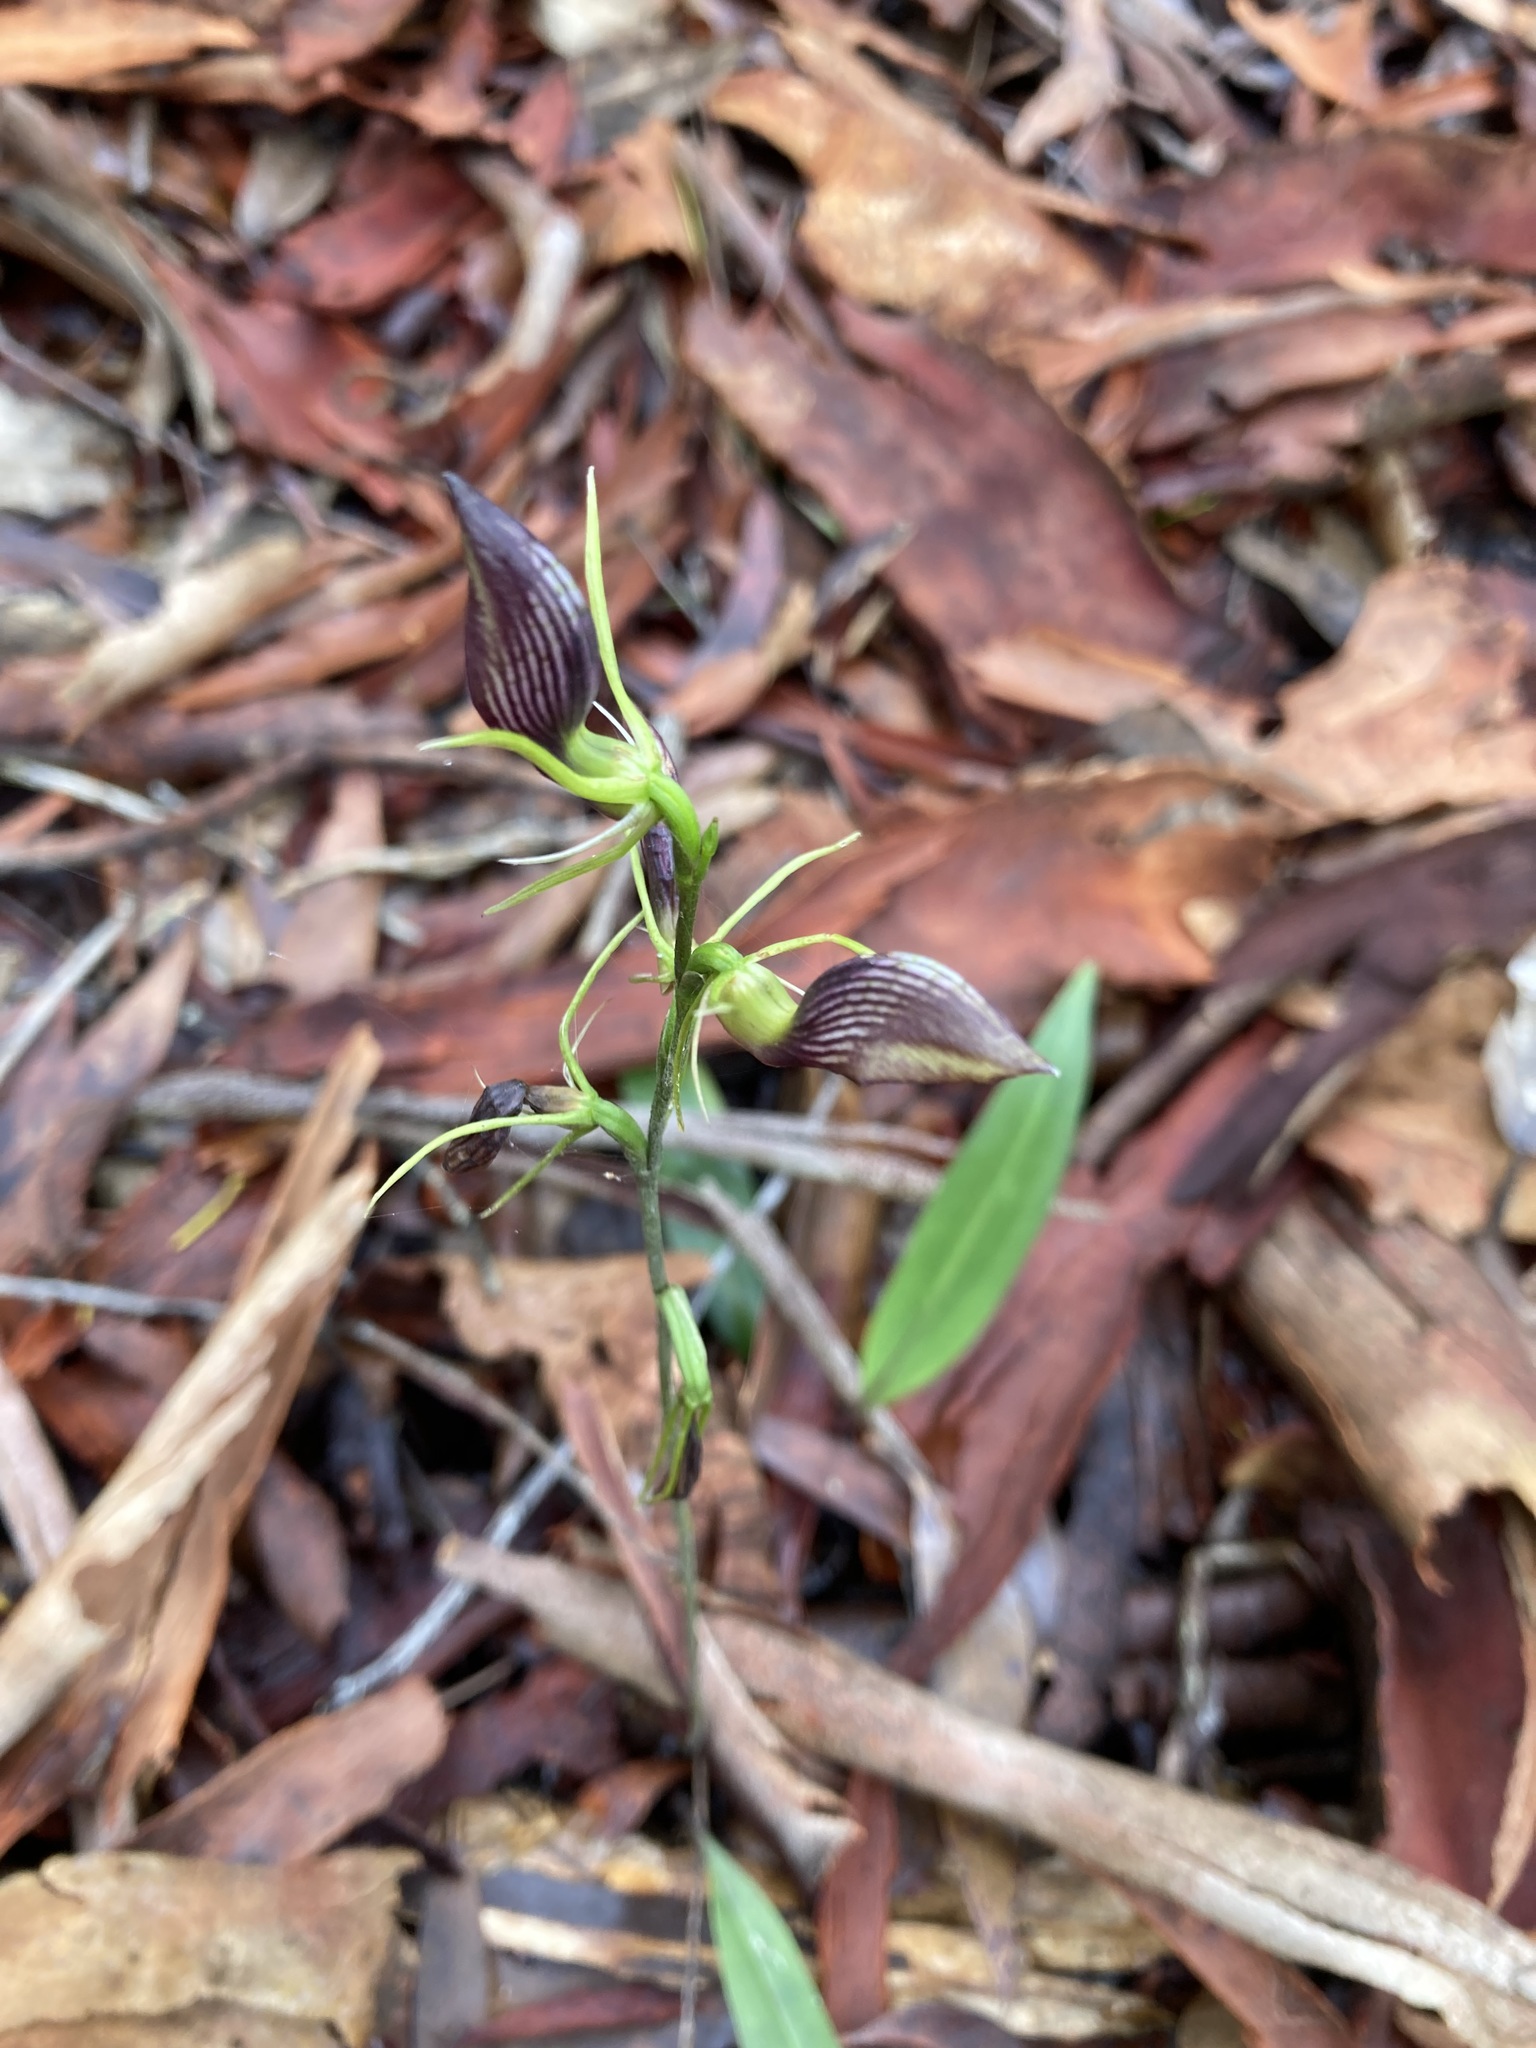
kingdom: Plantae
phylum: Tracheophyta
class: Liliopsida
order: Asparagales
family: Orchidaceae
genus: Cryptostylis
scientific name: Cryptostylis erecta
